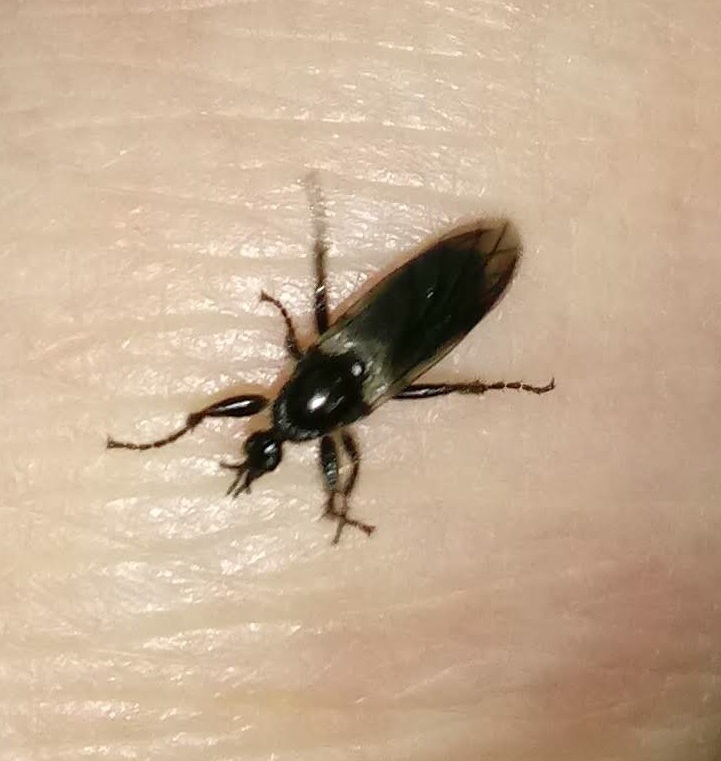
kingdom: Animalia
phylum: Arthropoda
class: Insecta
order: Diptera
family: Bibionidae
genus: Bibio
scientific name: Bibio albipennis
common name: White-winged march fly
